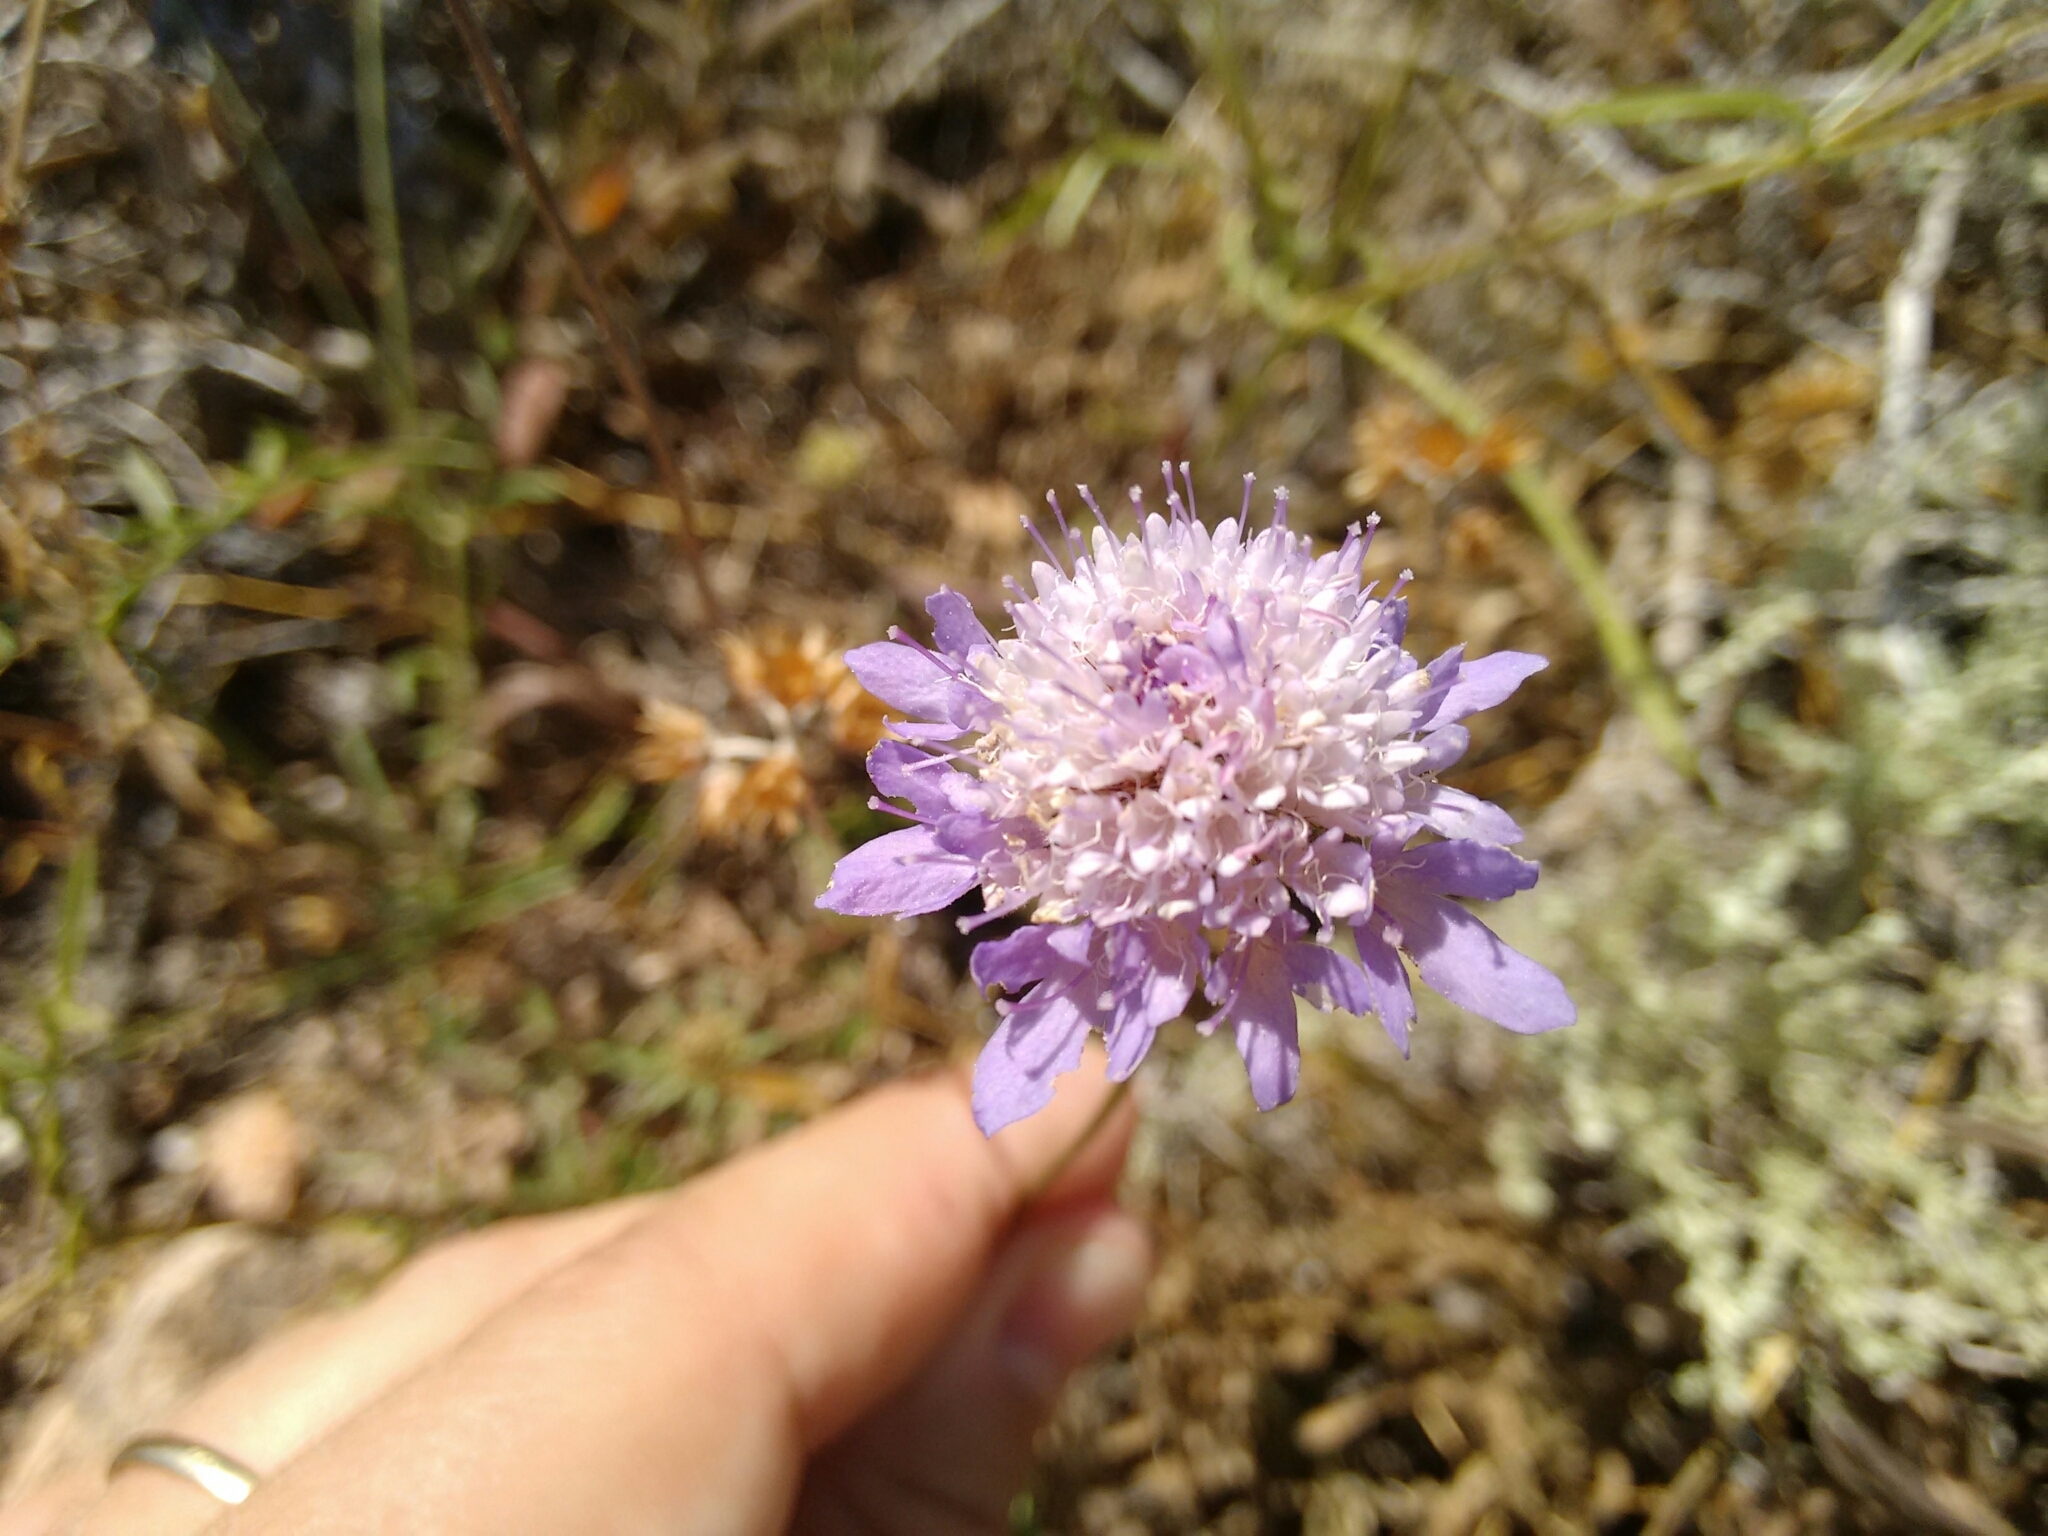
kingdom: Plantae
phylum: Tracheophyta
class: Magnoliopsida
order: Dipsacales
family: Caprifoliaceae
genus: Sixalix
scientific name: Sixalix atropurpurea
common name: Sweet scabious
